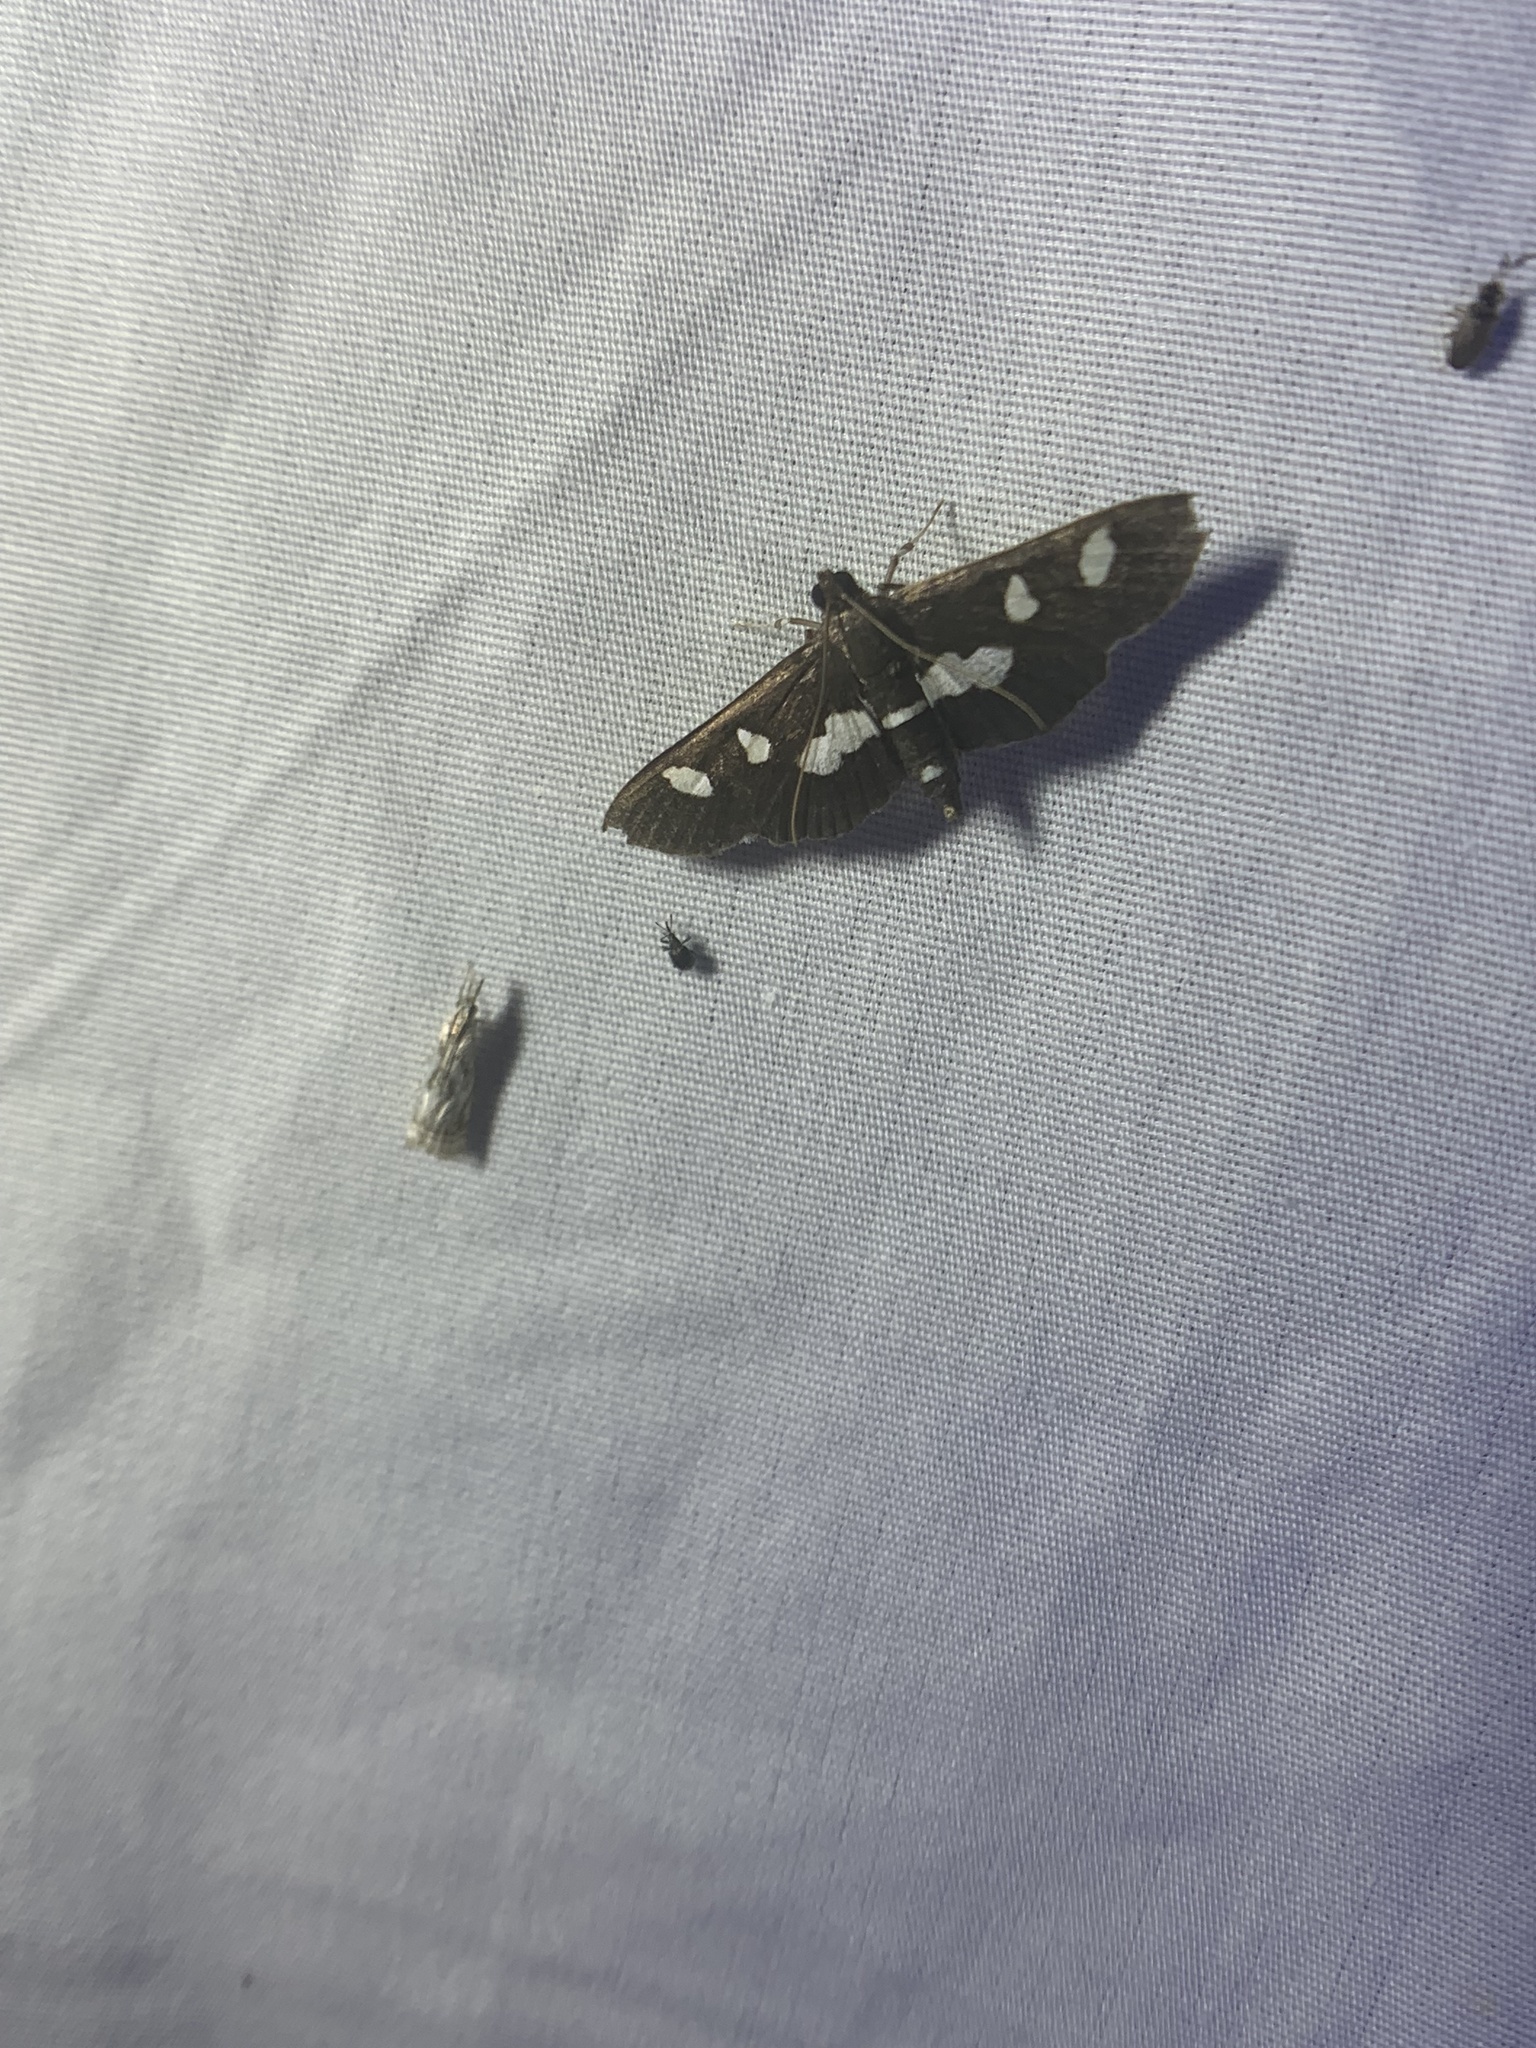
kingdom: Animalia
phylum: Arthropoda
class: Insecta
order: Lepidoptera
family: Crambidae
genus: Desmia
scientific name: Desmia
